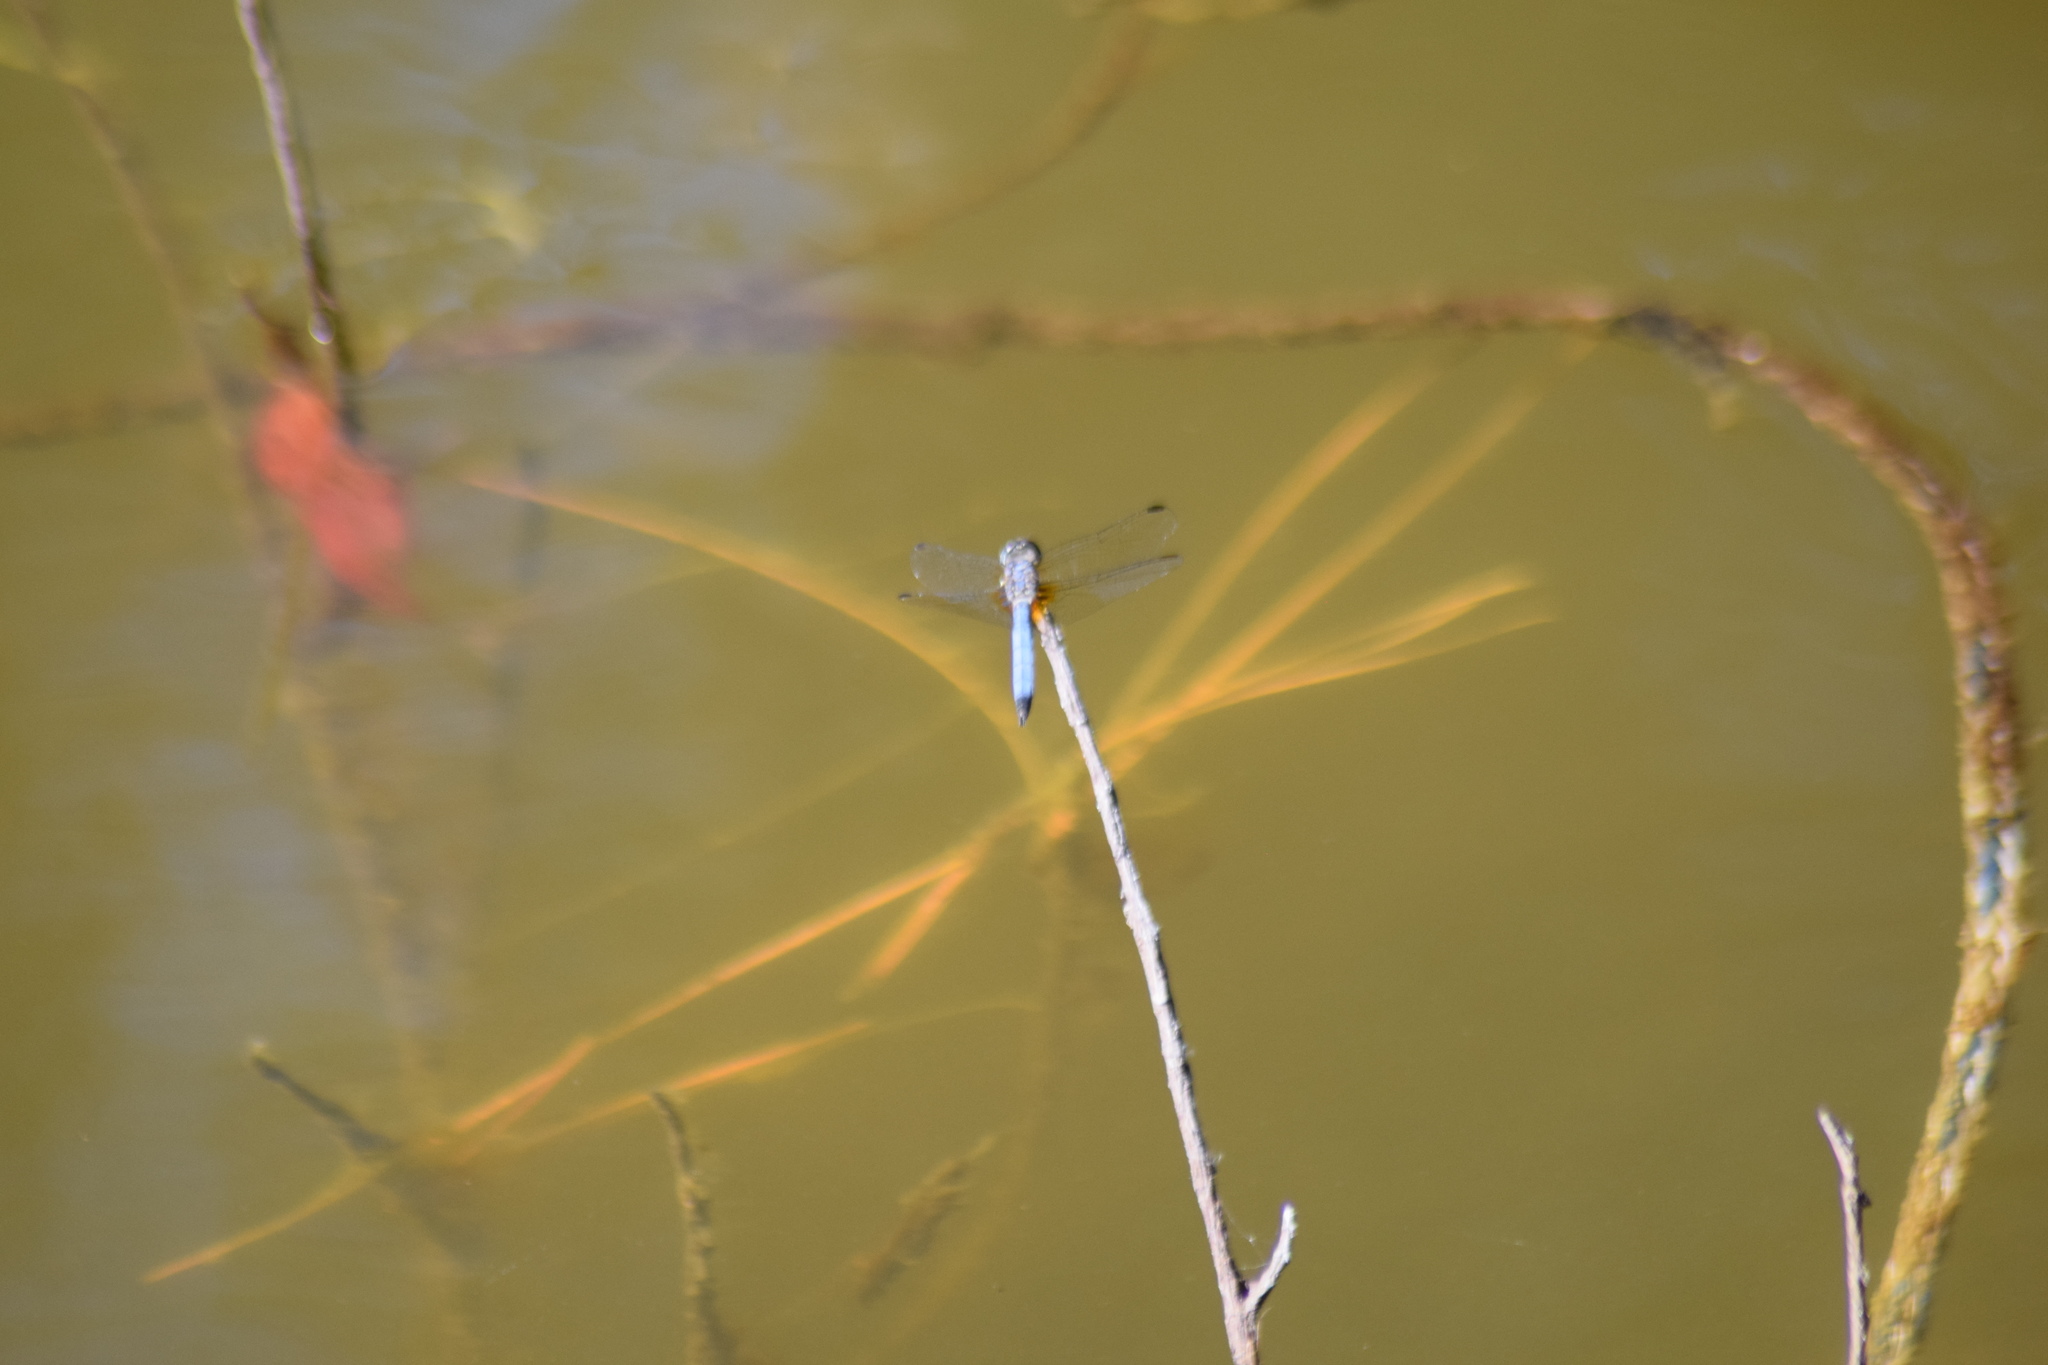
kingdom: Animalia
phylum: Arthropoda
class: Insecta
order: Odonata
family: Libellulidae
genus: Pachydiplax
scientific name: Pachydiplax longipennis
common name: Blue dasher
